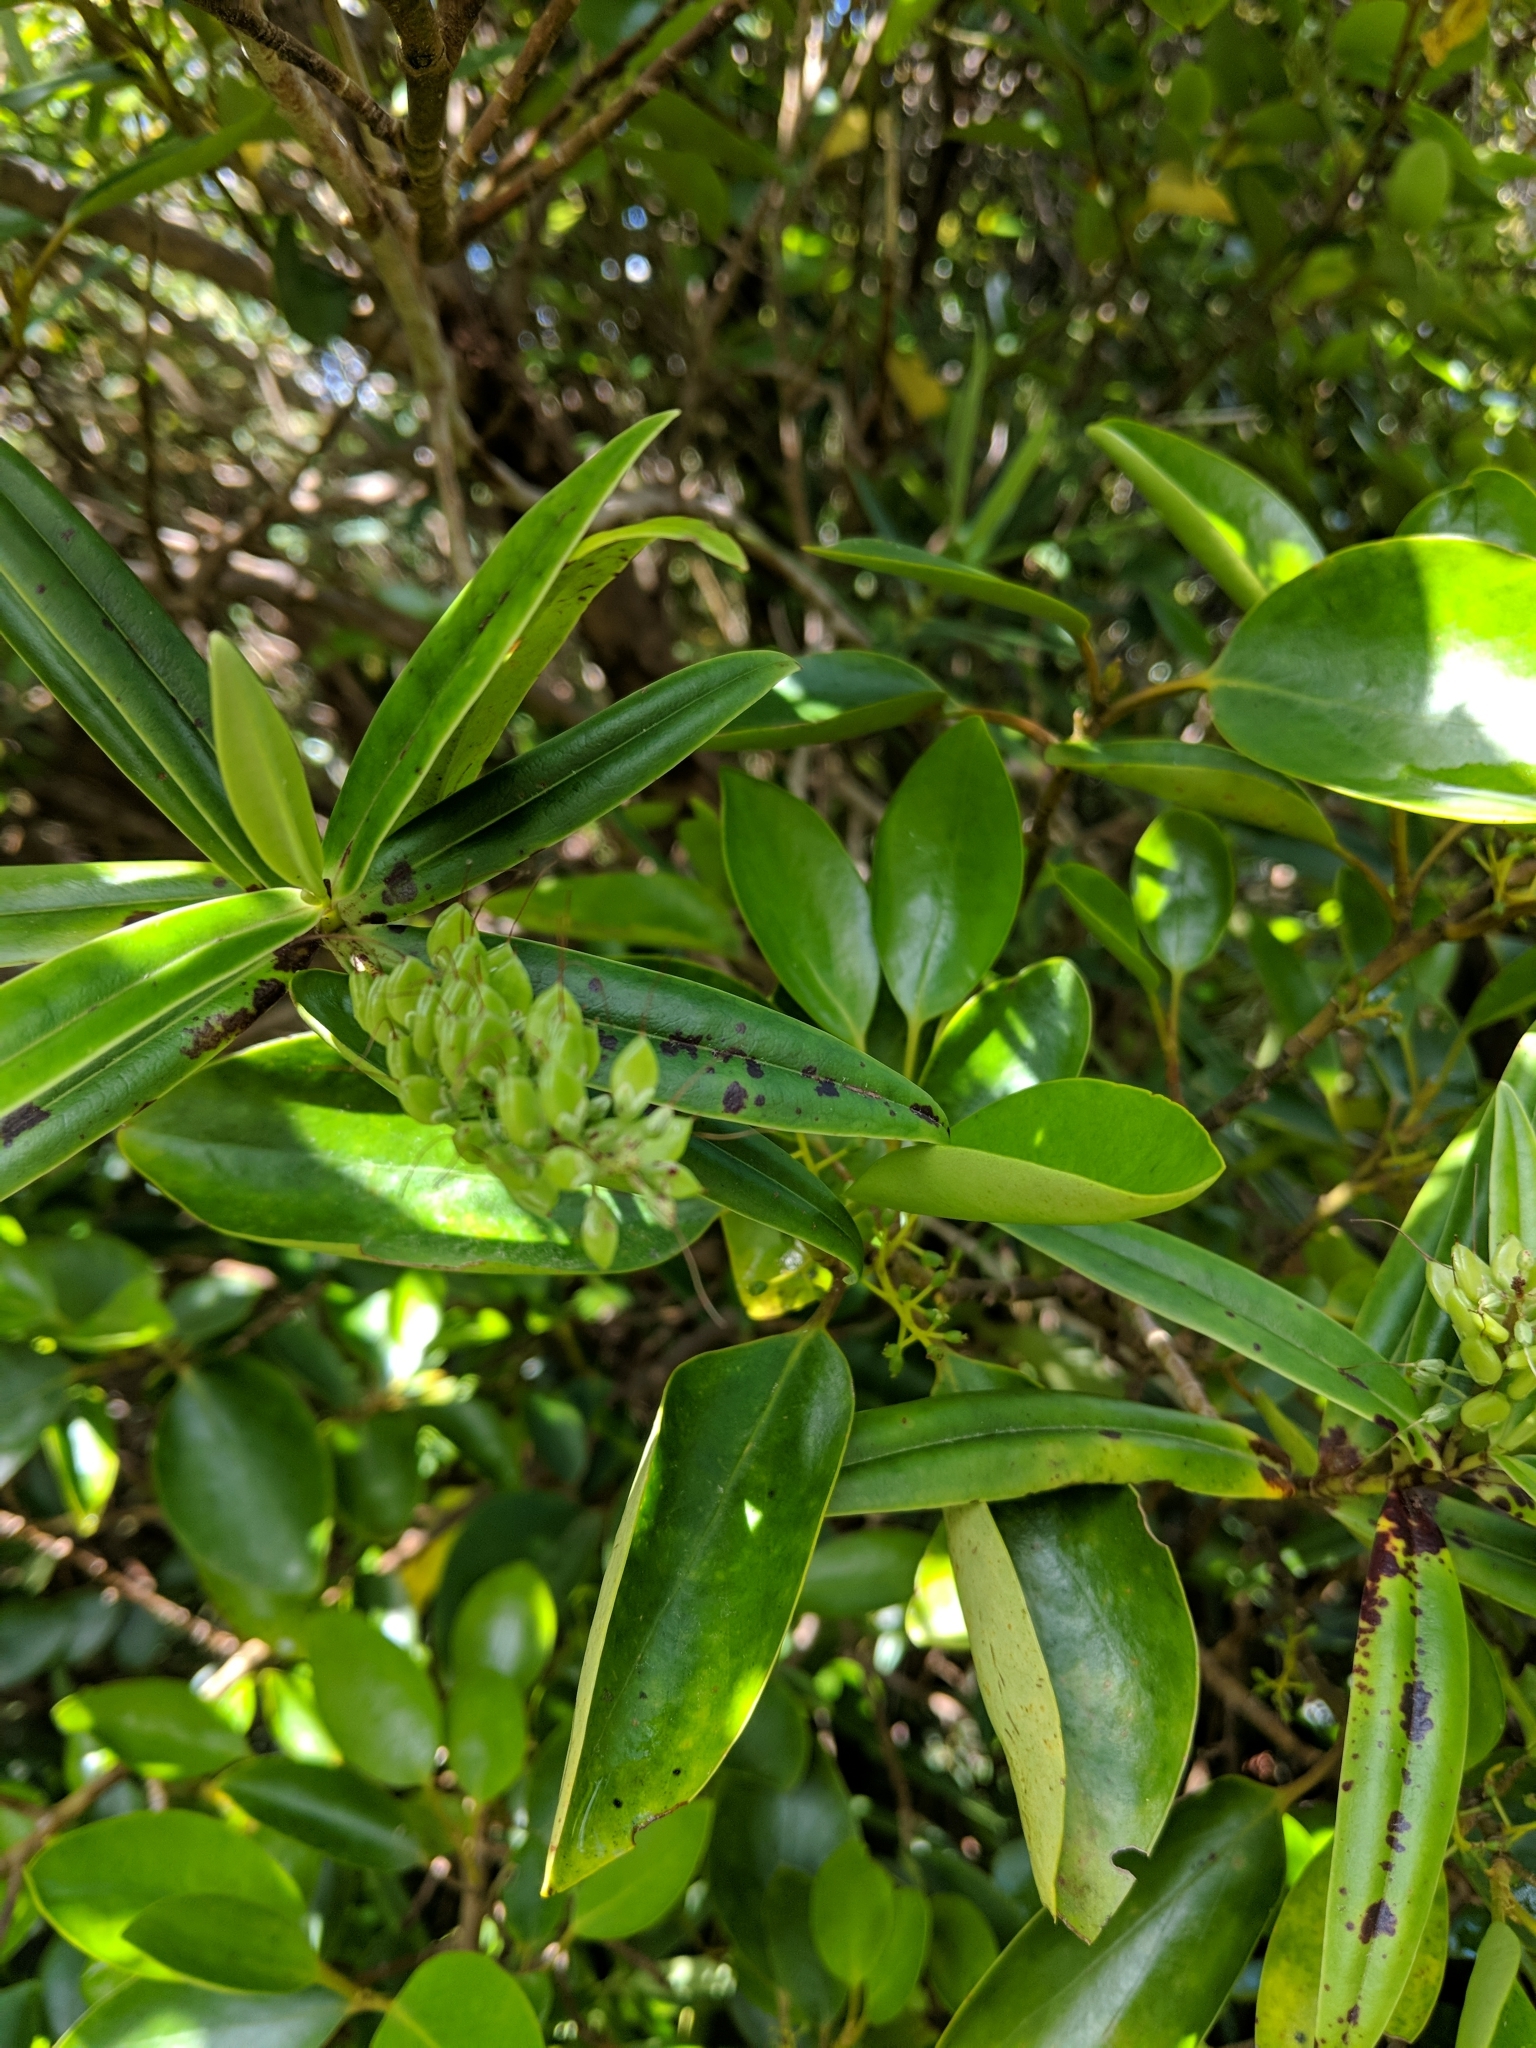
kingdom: Plantae
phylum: Tracheophyta
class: Magnoliopsida
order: Lamiales
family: Plantaginaceae
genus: Veronica
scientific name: Veronica macrocarpa
